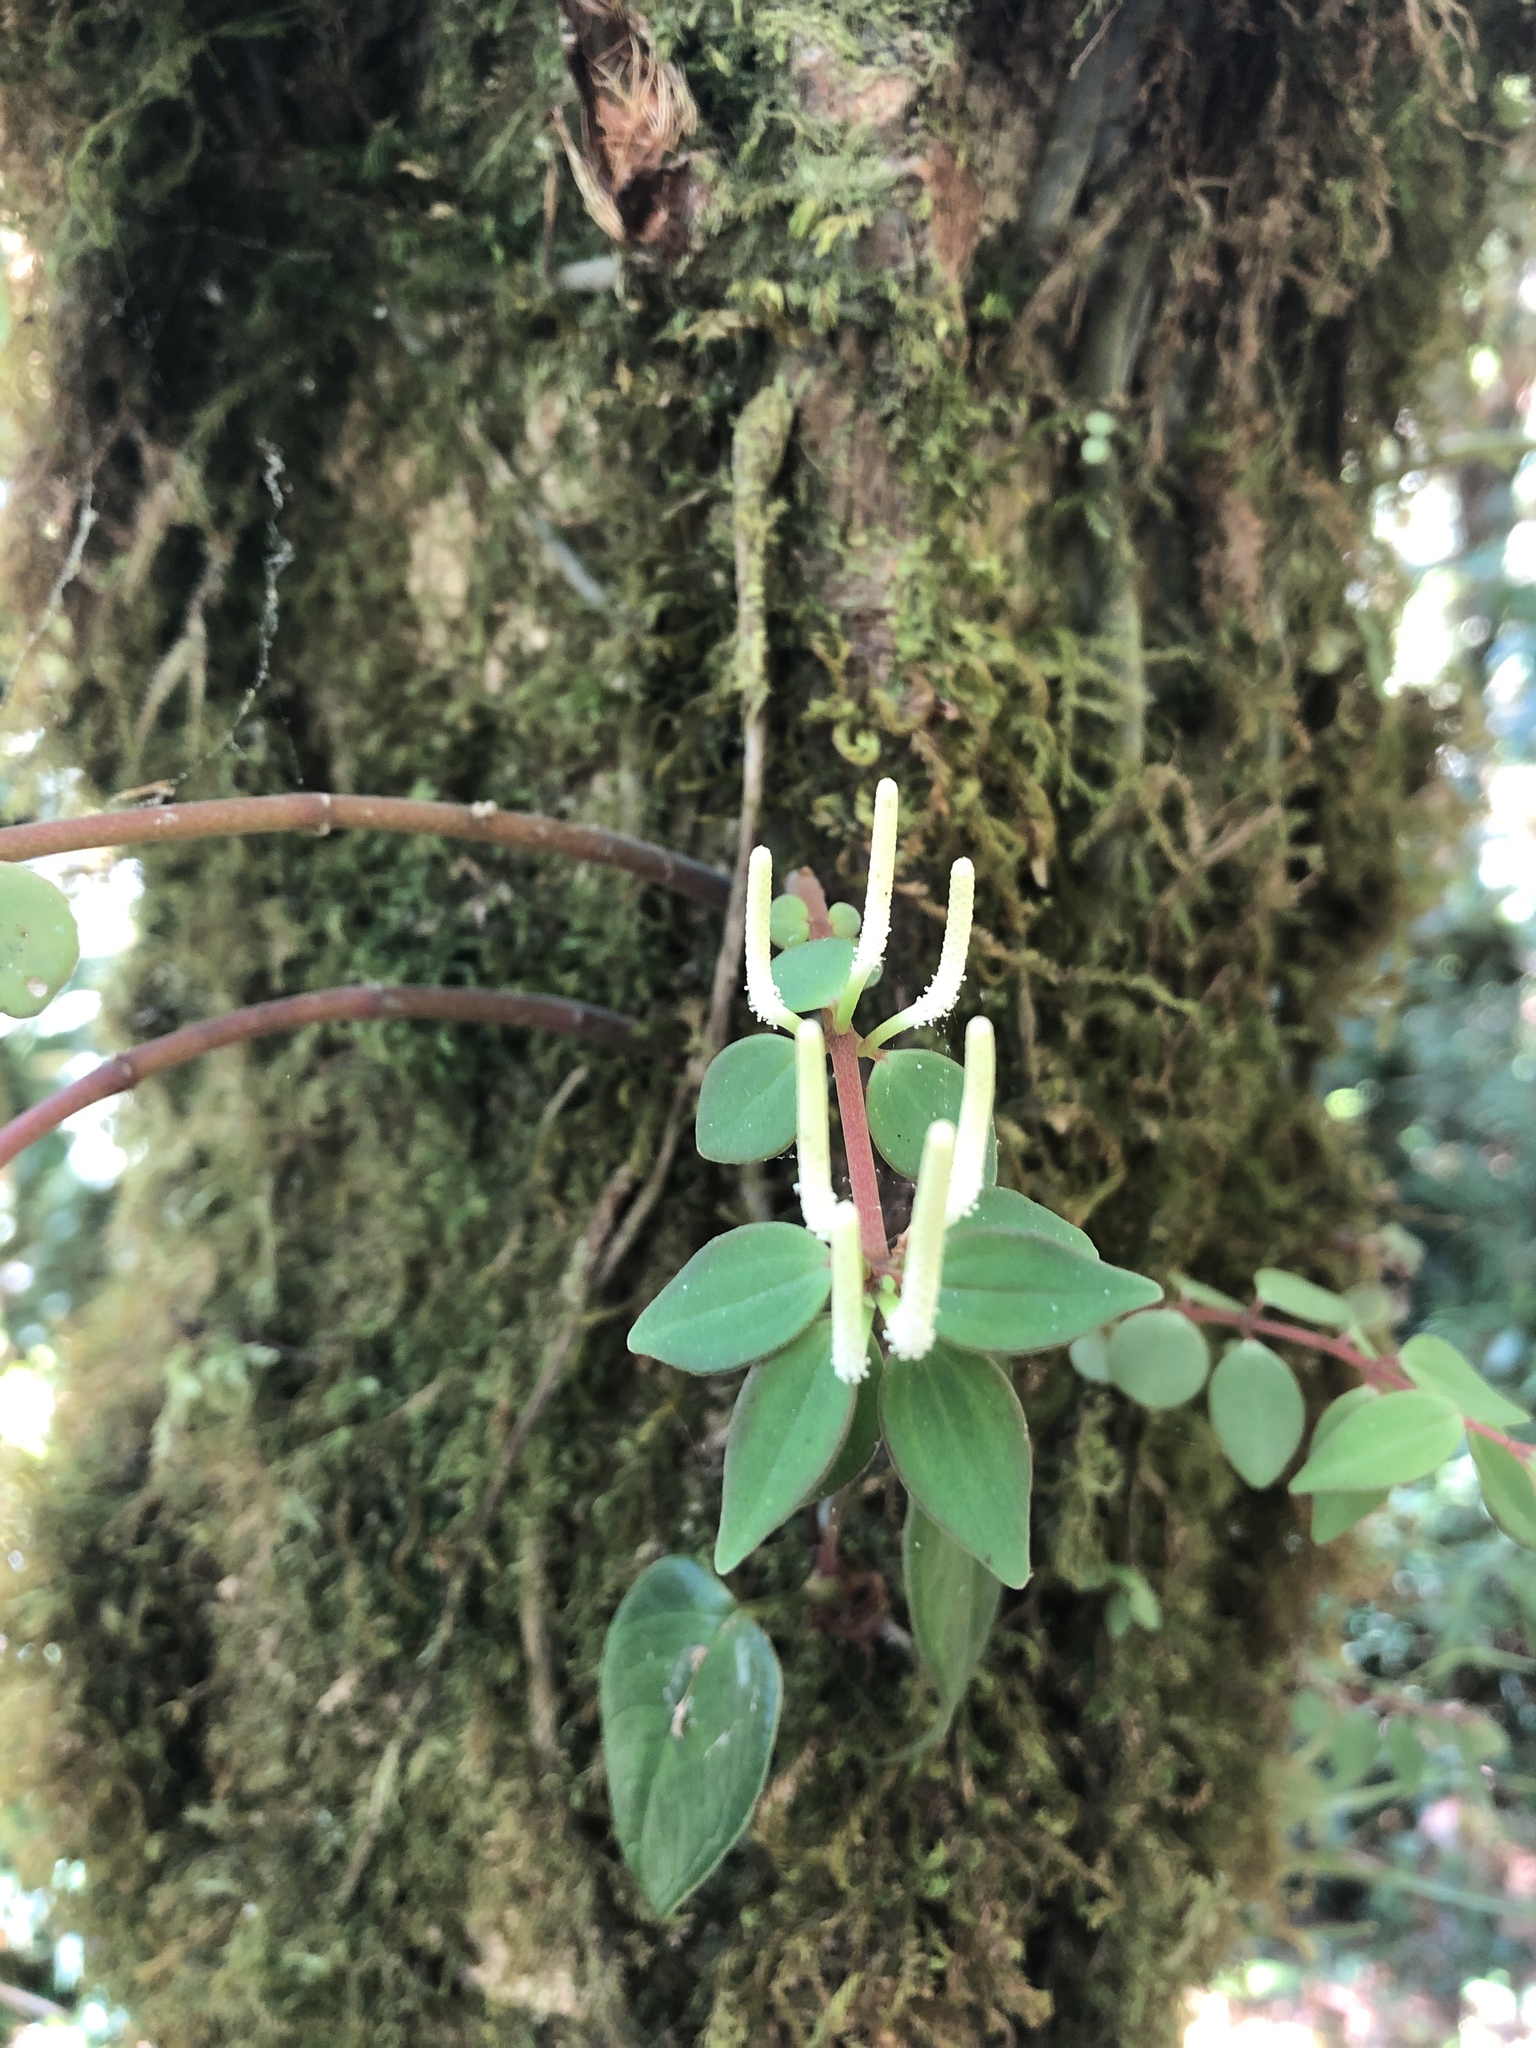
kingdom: Plantae
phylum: Tracheophyta
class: Magnoliopsida
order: Piperales
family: Piperaceae
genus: Peperomia
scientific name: Peperomia palmana
